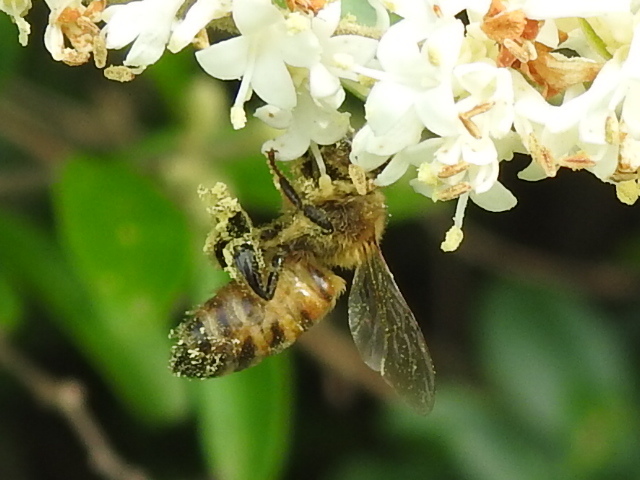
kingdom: Animalia
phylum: Arthropoda
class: Insecta
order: Hymenoptera
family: Apidae
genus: Apis
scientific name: Apis mellifera
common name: Honey bee
